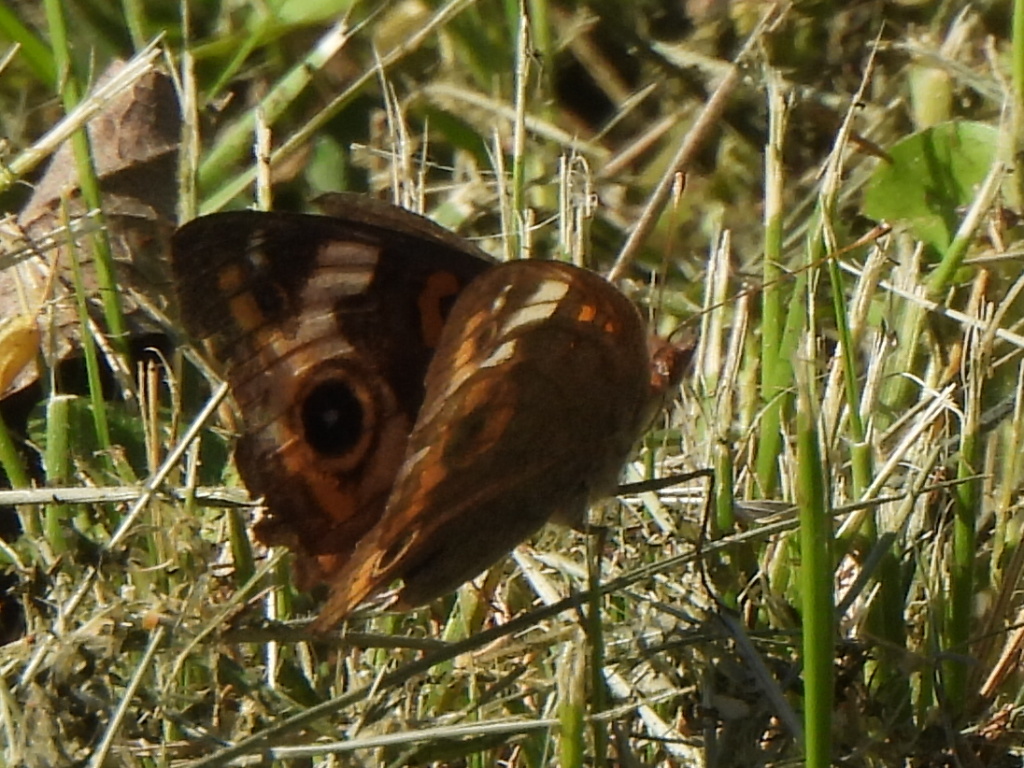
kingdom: Animalia
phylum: Arthropoda
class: Insecta
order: Lepidoptera
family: Nymphalidae
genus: Junonia
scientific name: Junonia coenia
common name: Common buckeye
